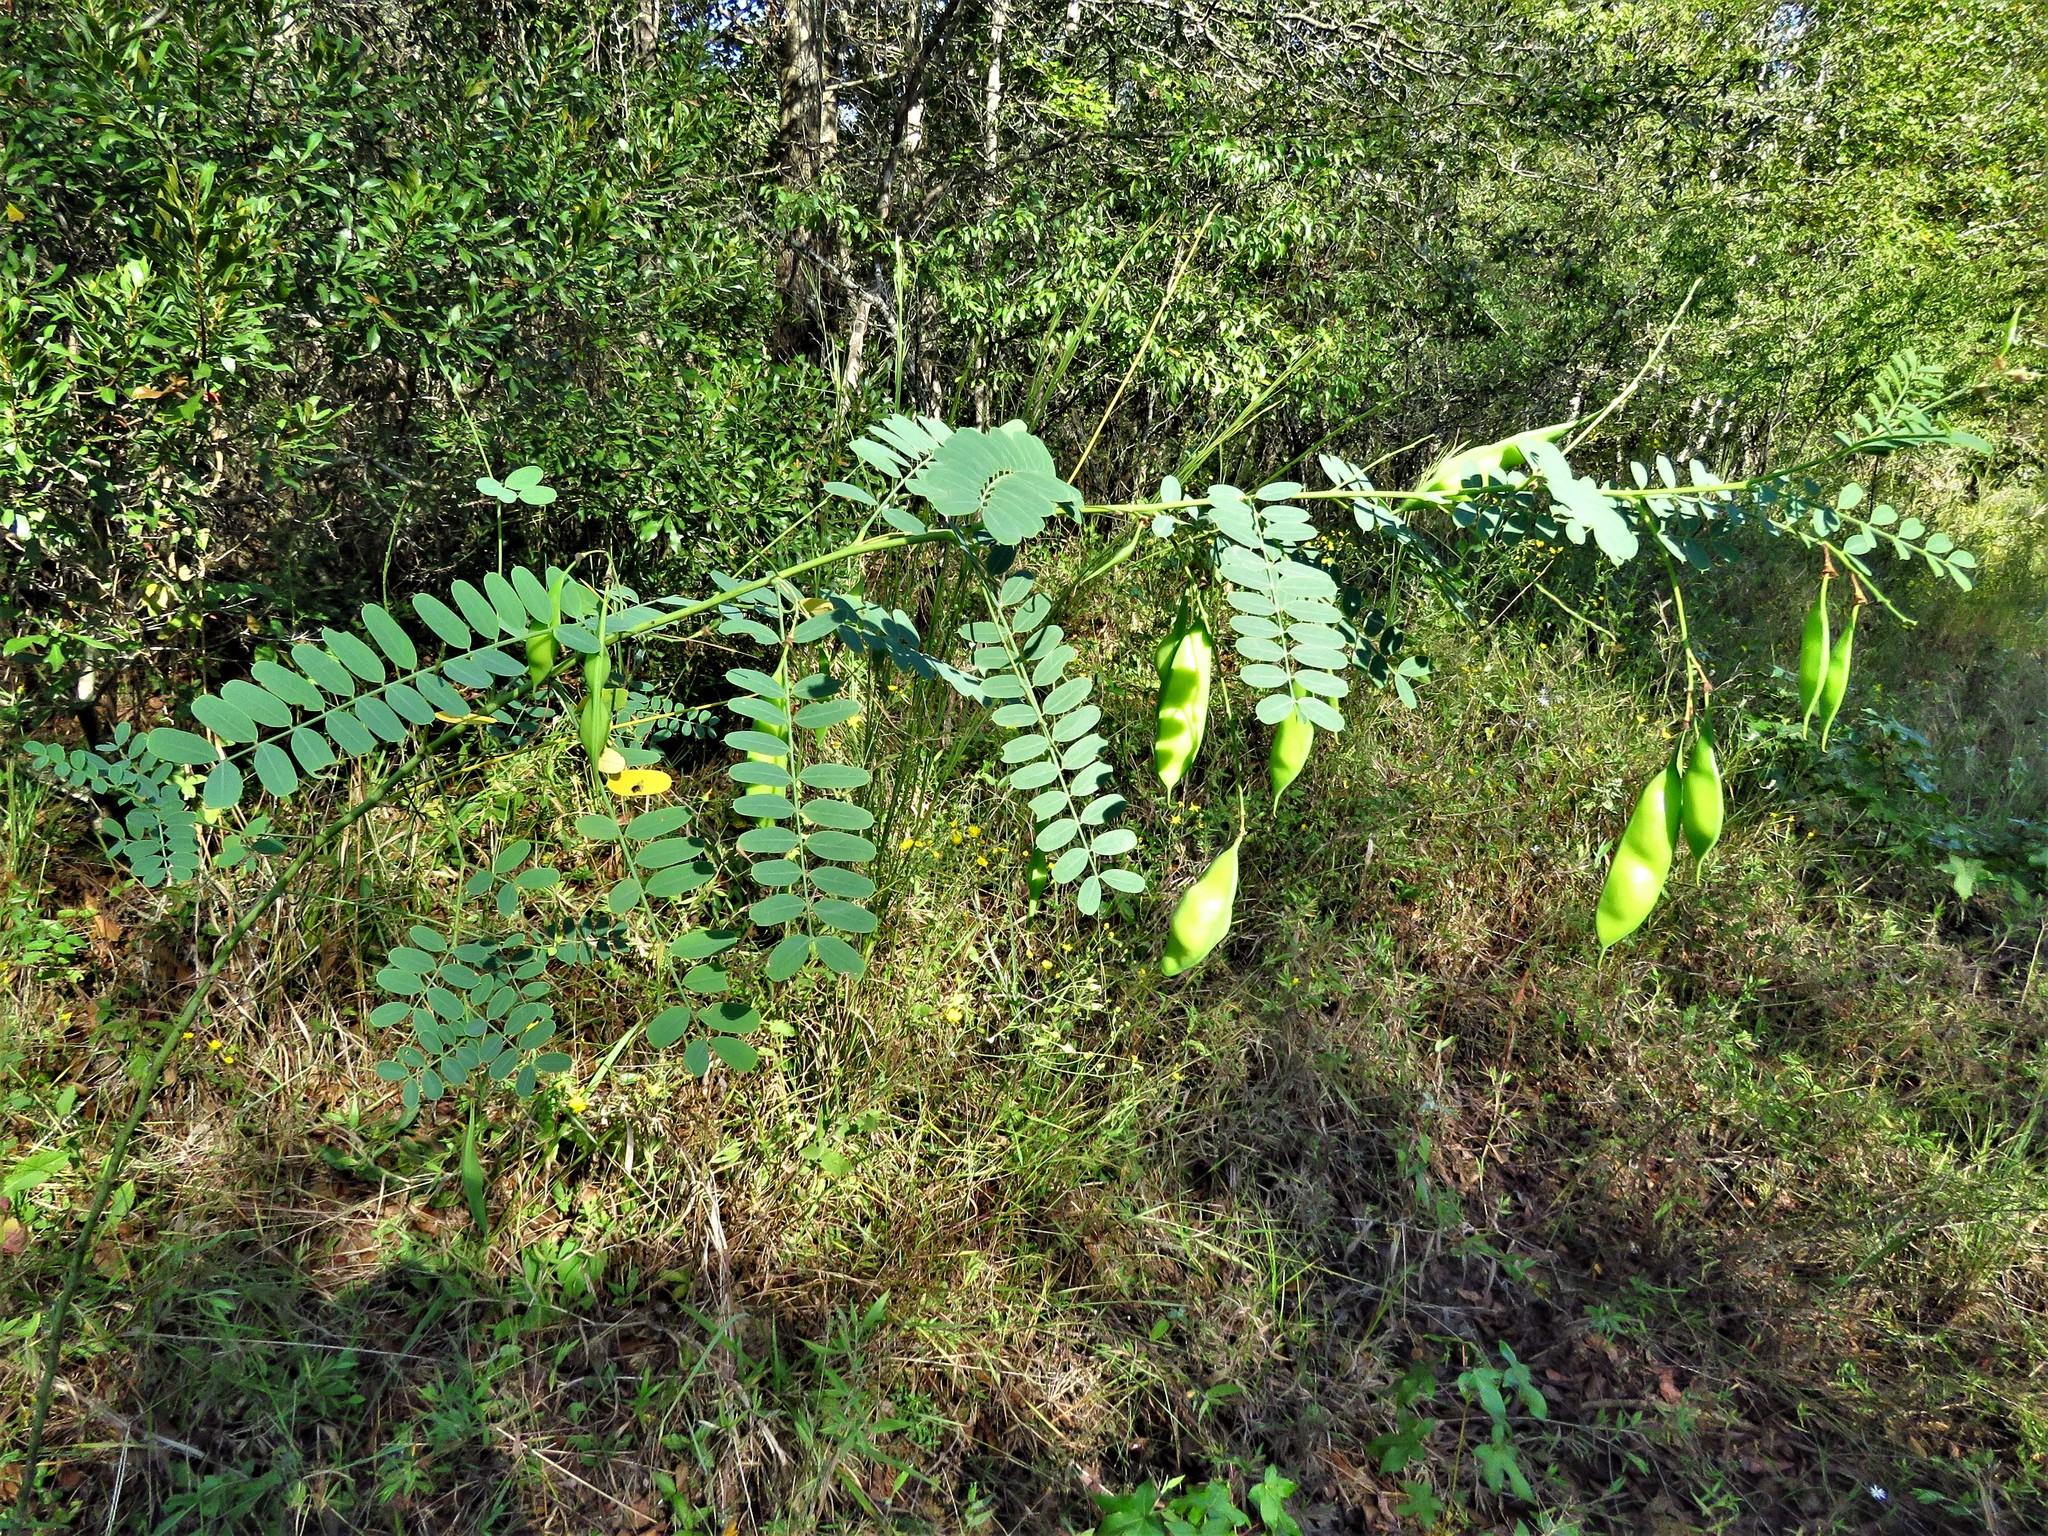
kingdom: Plantae
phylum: Tracheophyta
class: Magnoliopsida
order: Fabales
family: Fabaceae
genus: Sesbania
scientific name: Sesbania vesicaria
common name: Bagpod
